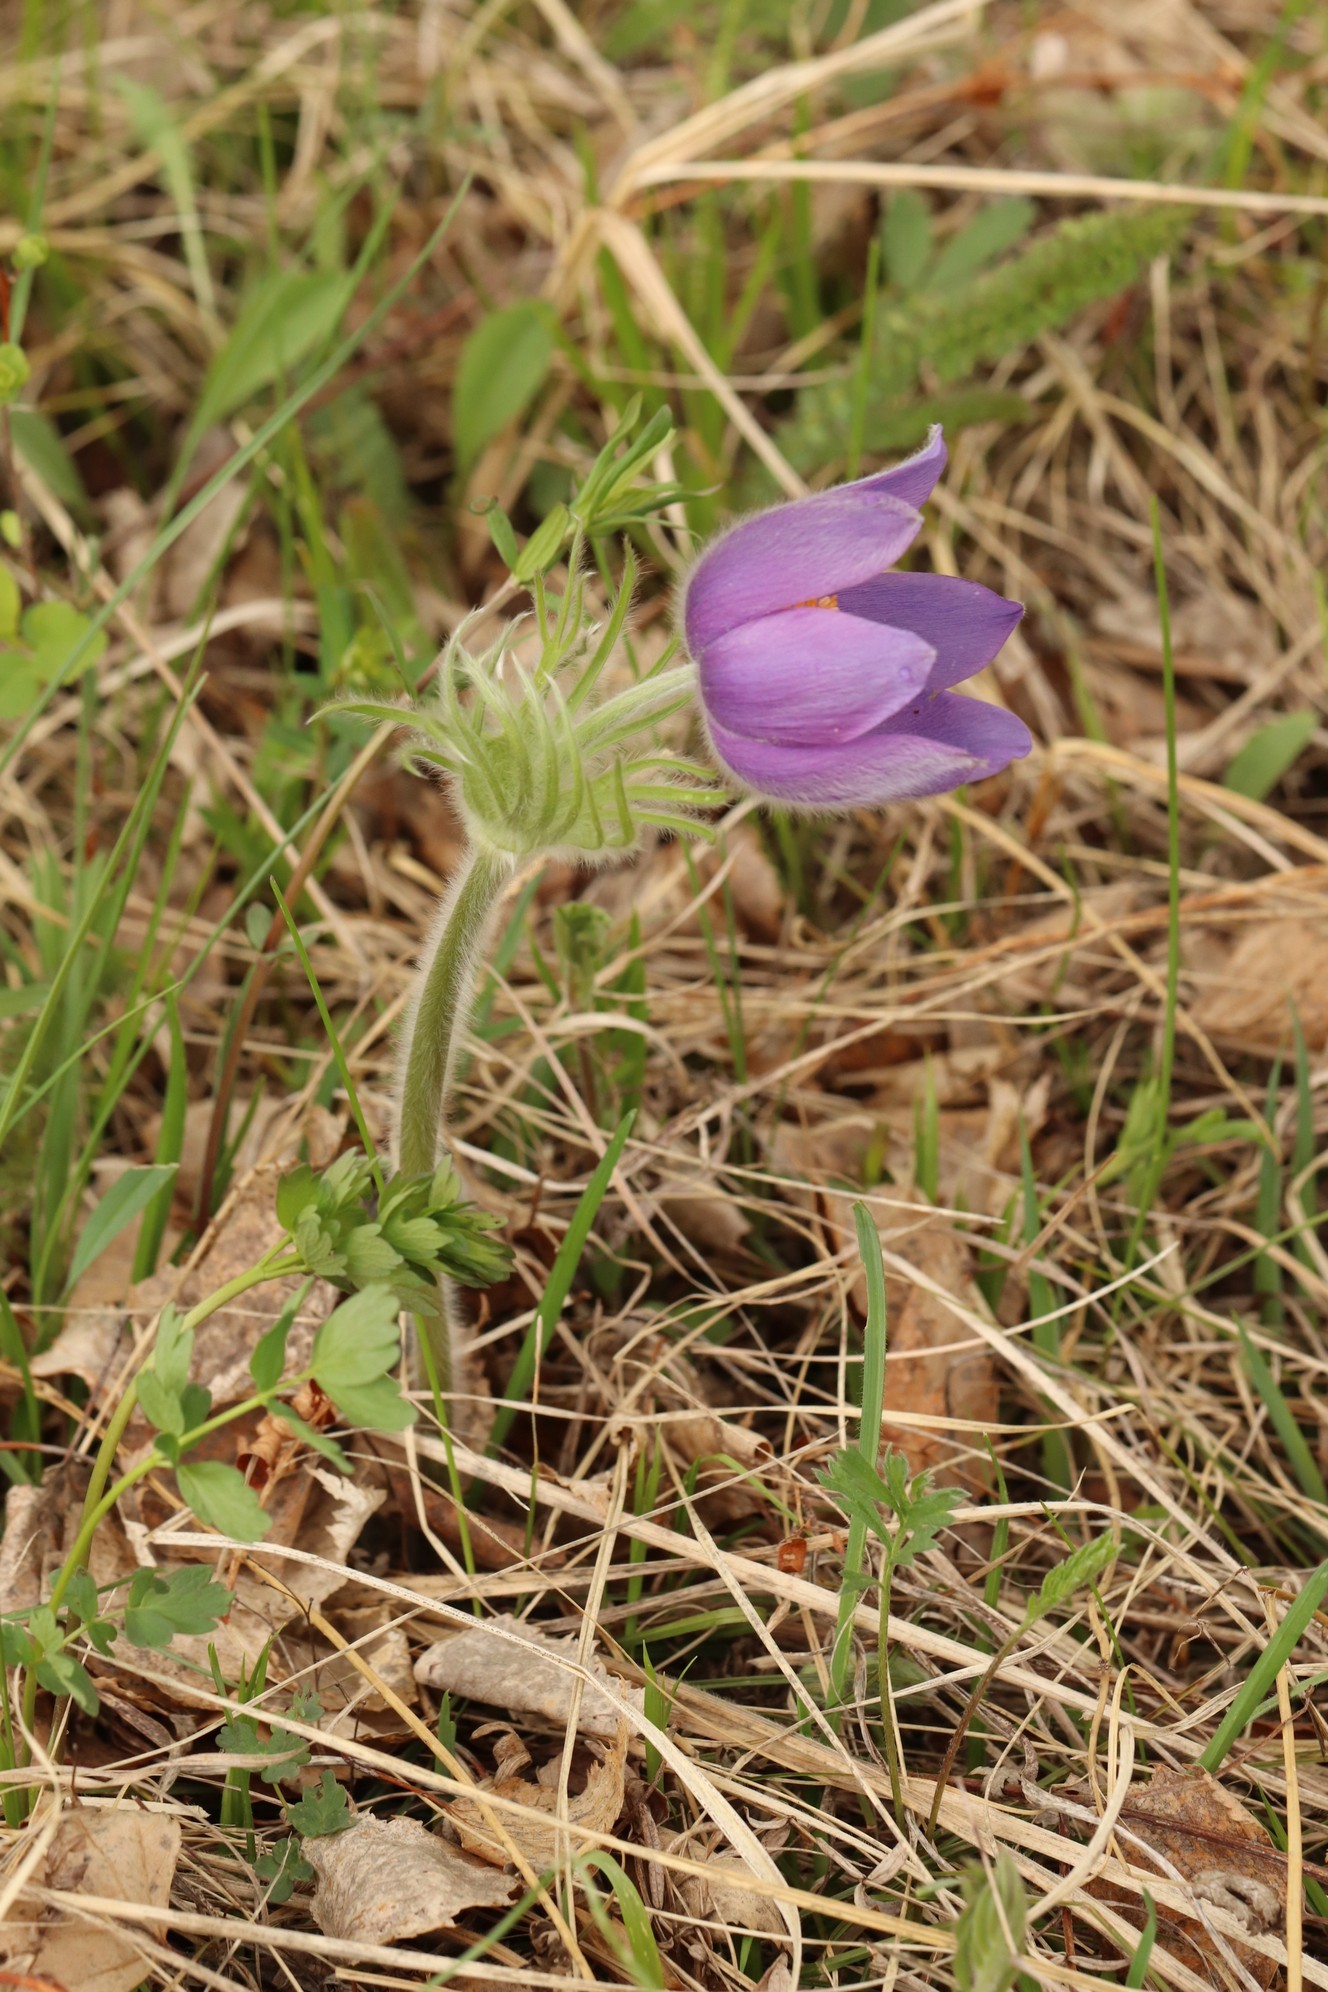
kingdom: Plantae
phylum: Tracheophyta
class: Magnoliopsida
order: Ranunculales
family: Ranunculaceae
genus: Pulsatilla
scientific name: Pulsatilla patens
